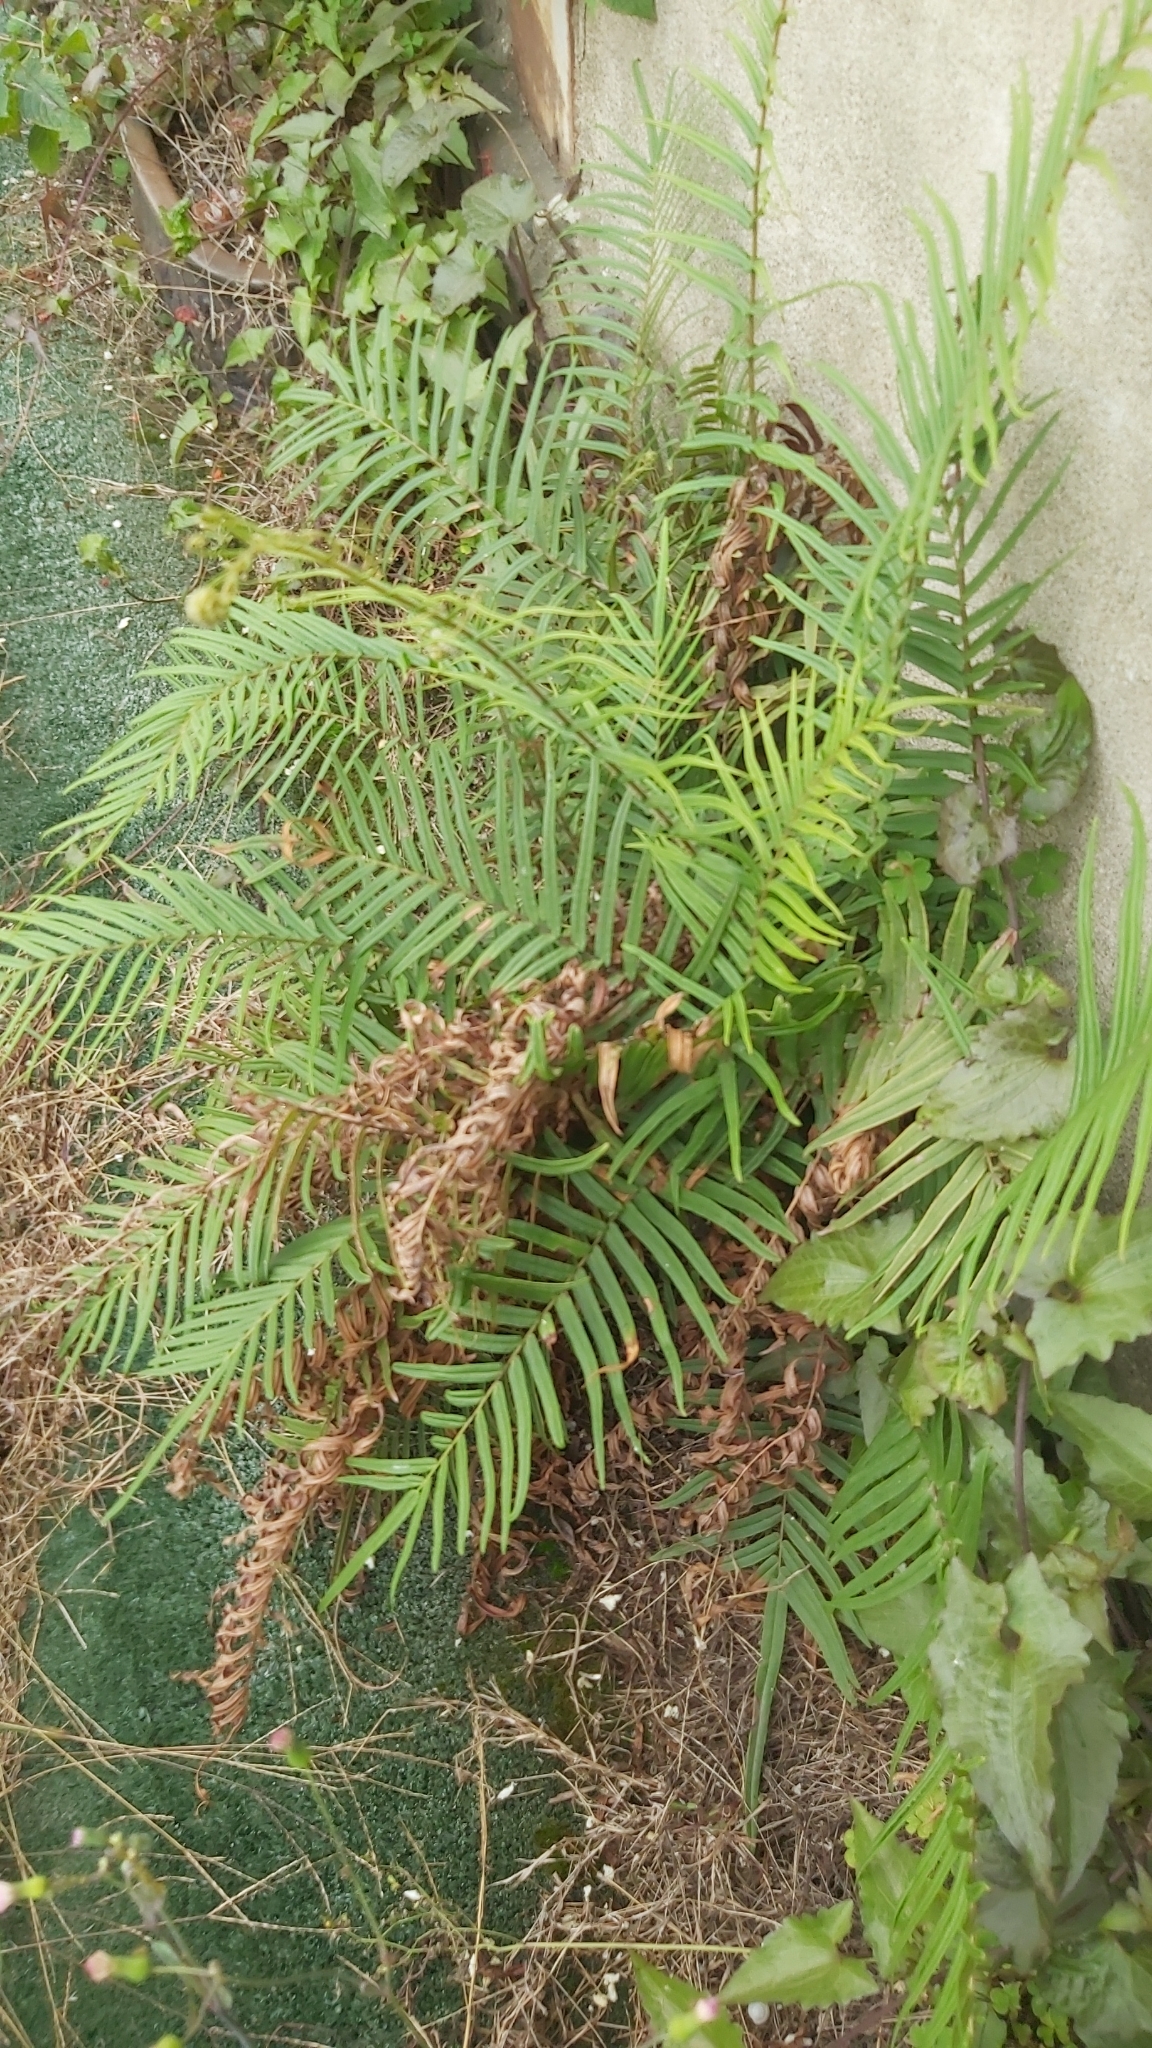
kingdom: Plantae
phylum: Tracheophyta
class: Polypodiopsida
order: Polypodiales
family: Pteridaceae
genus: Pteris
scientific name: Pteris vittata
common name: Ladder brake
